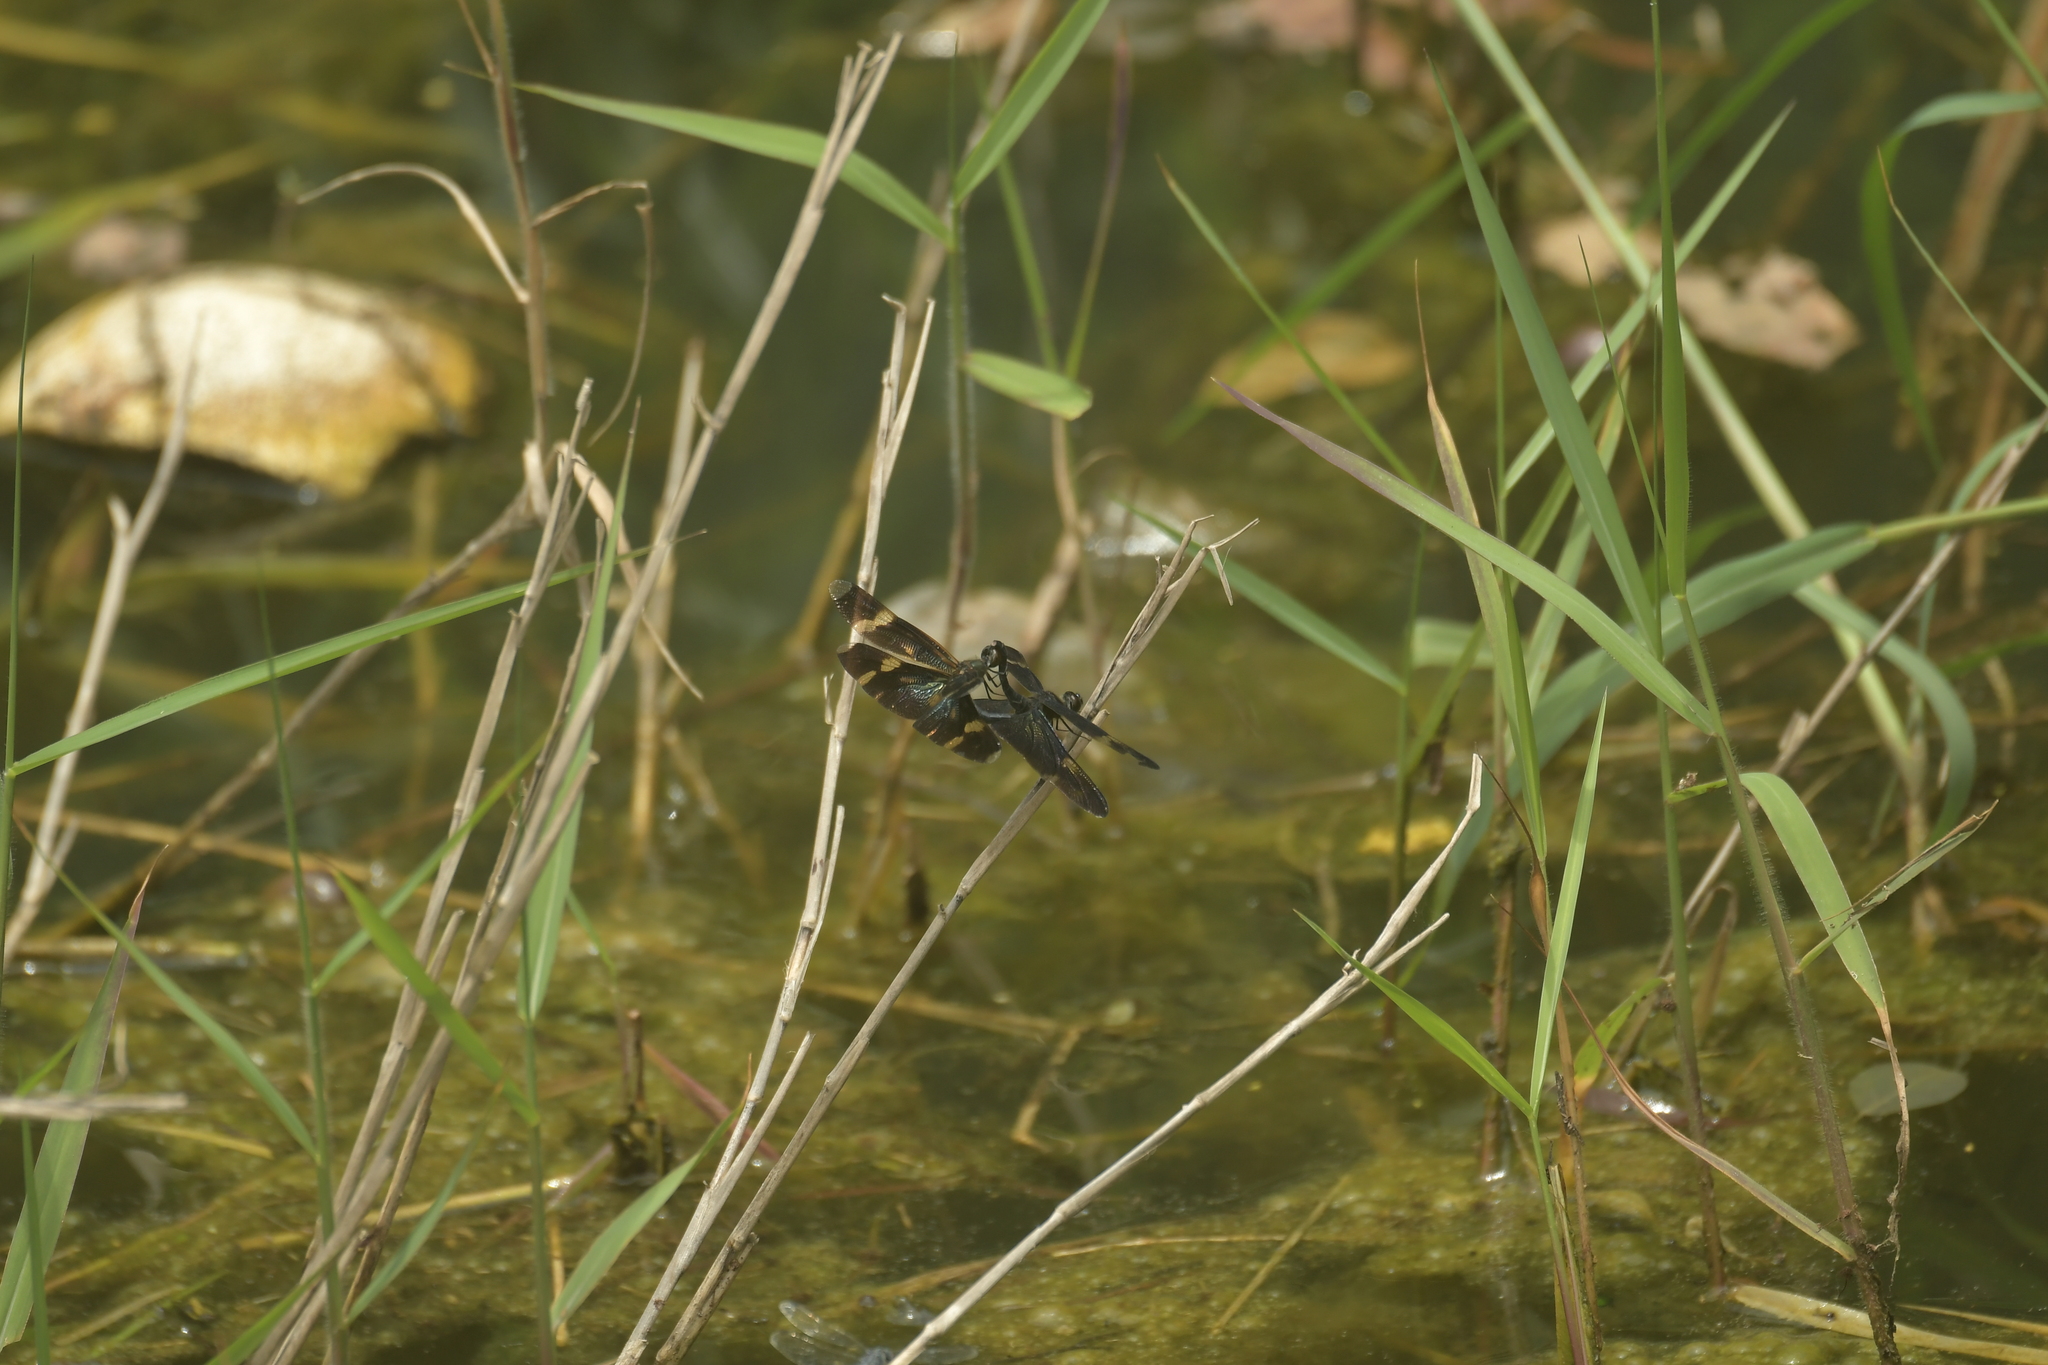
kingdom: Animalia
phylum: Arthropoda
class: Insecta
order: Odonata
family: Libellulidae
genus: Rhyothemis
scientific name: Rhyothemis regia
